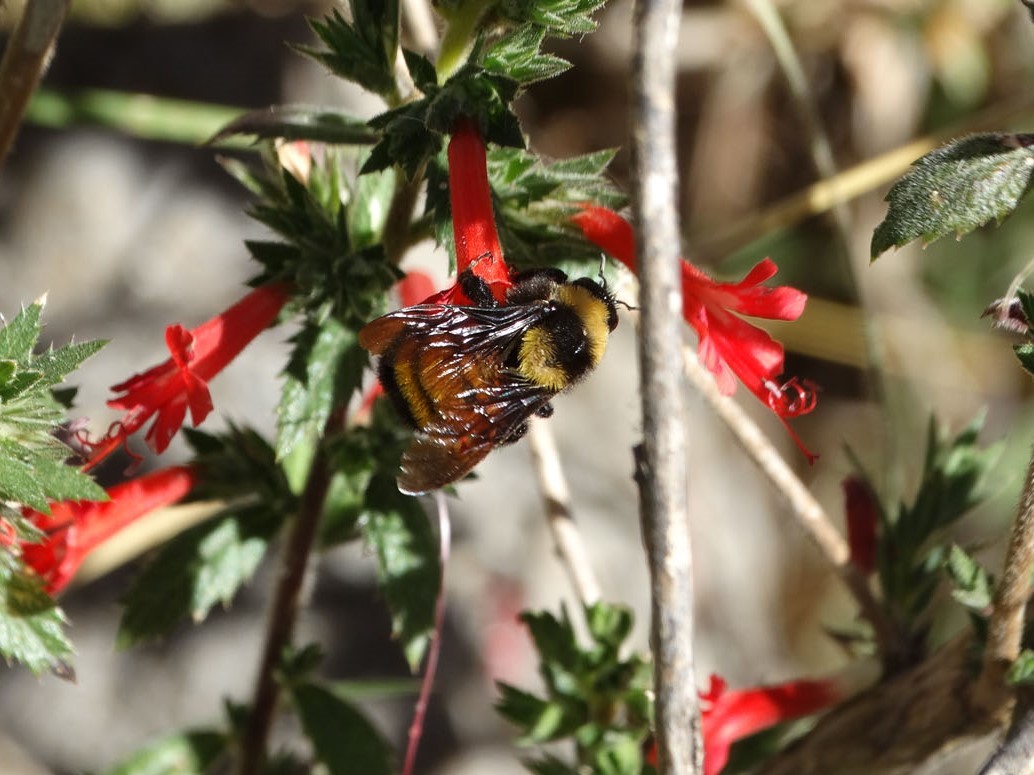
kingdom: Animalia
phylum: Arthropoda
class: Insecta
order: Hymenoptera
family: Apidae
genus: Bombus
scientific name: Bombus sonorus
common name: Sonoran bumble bee
